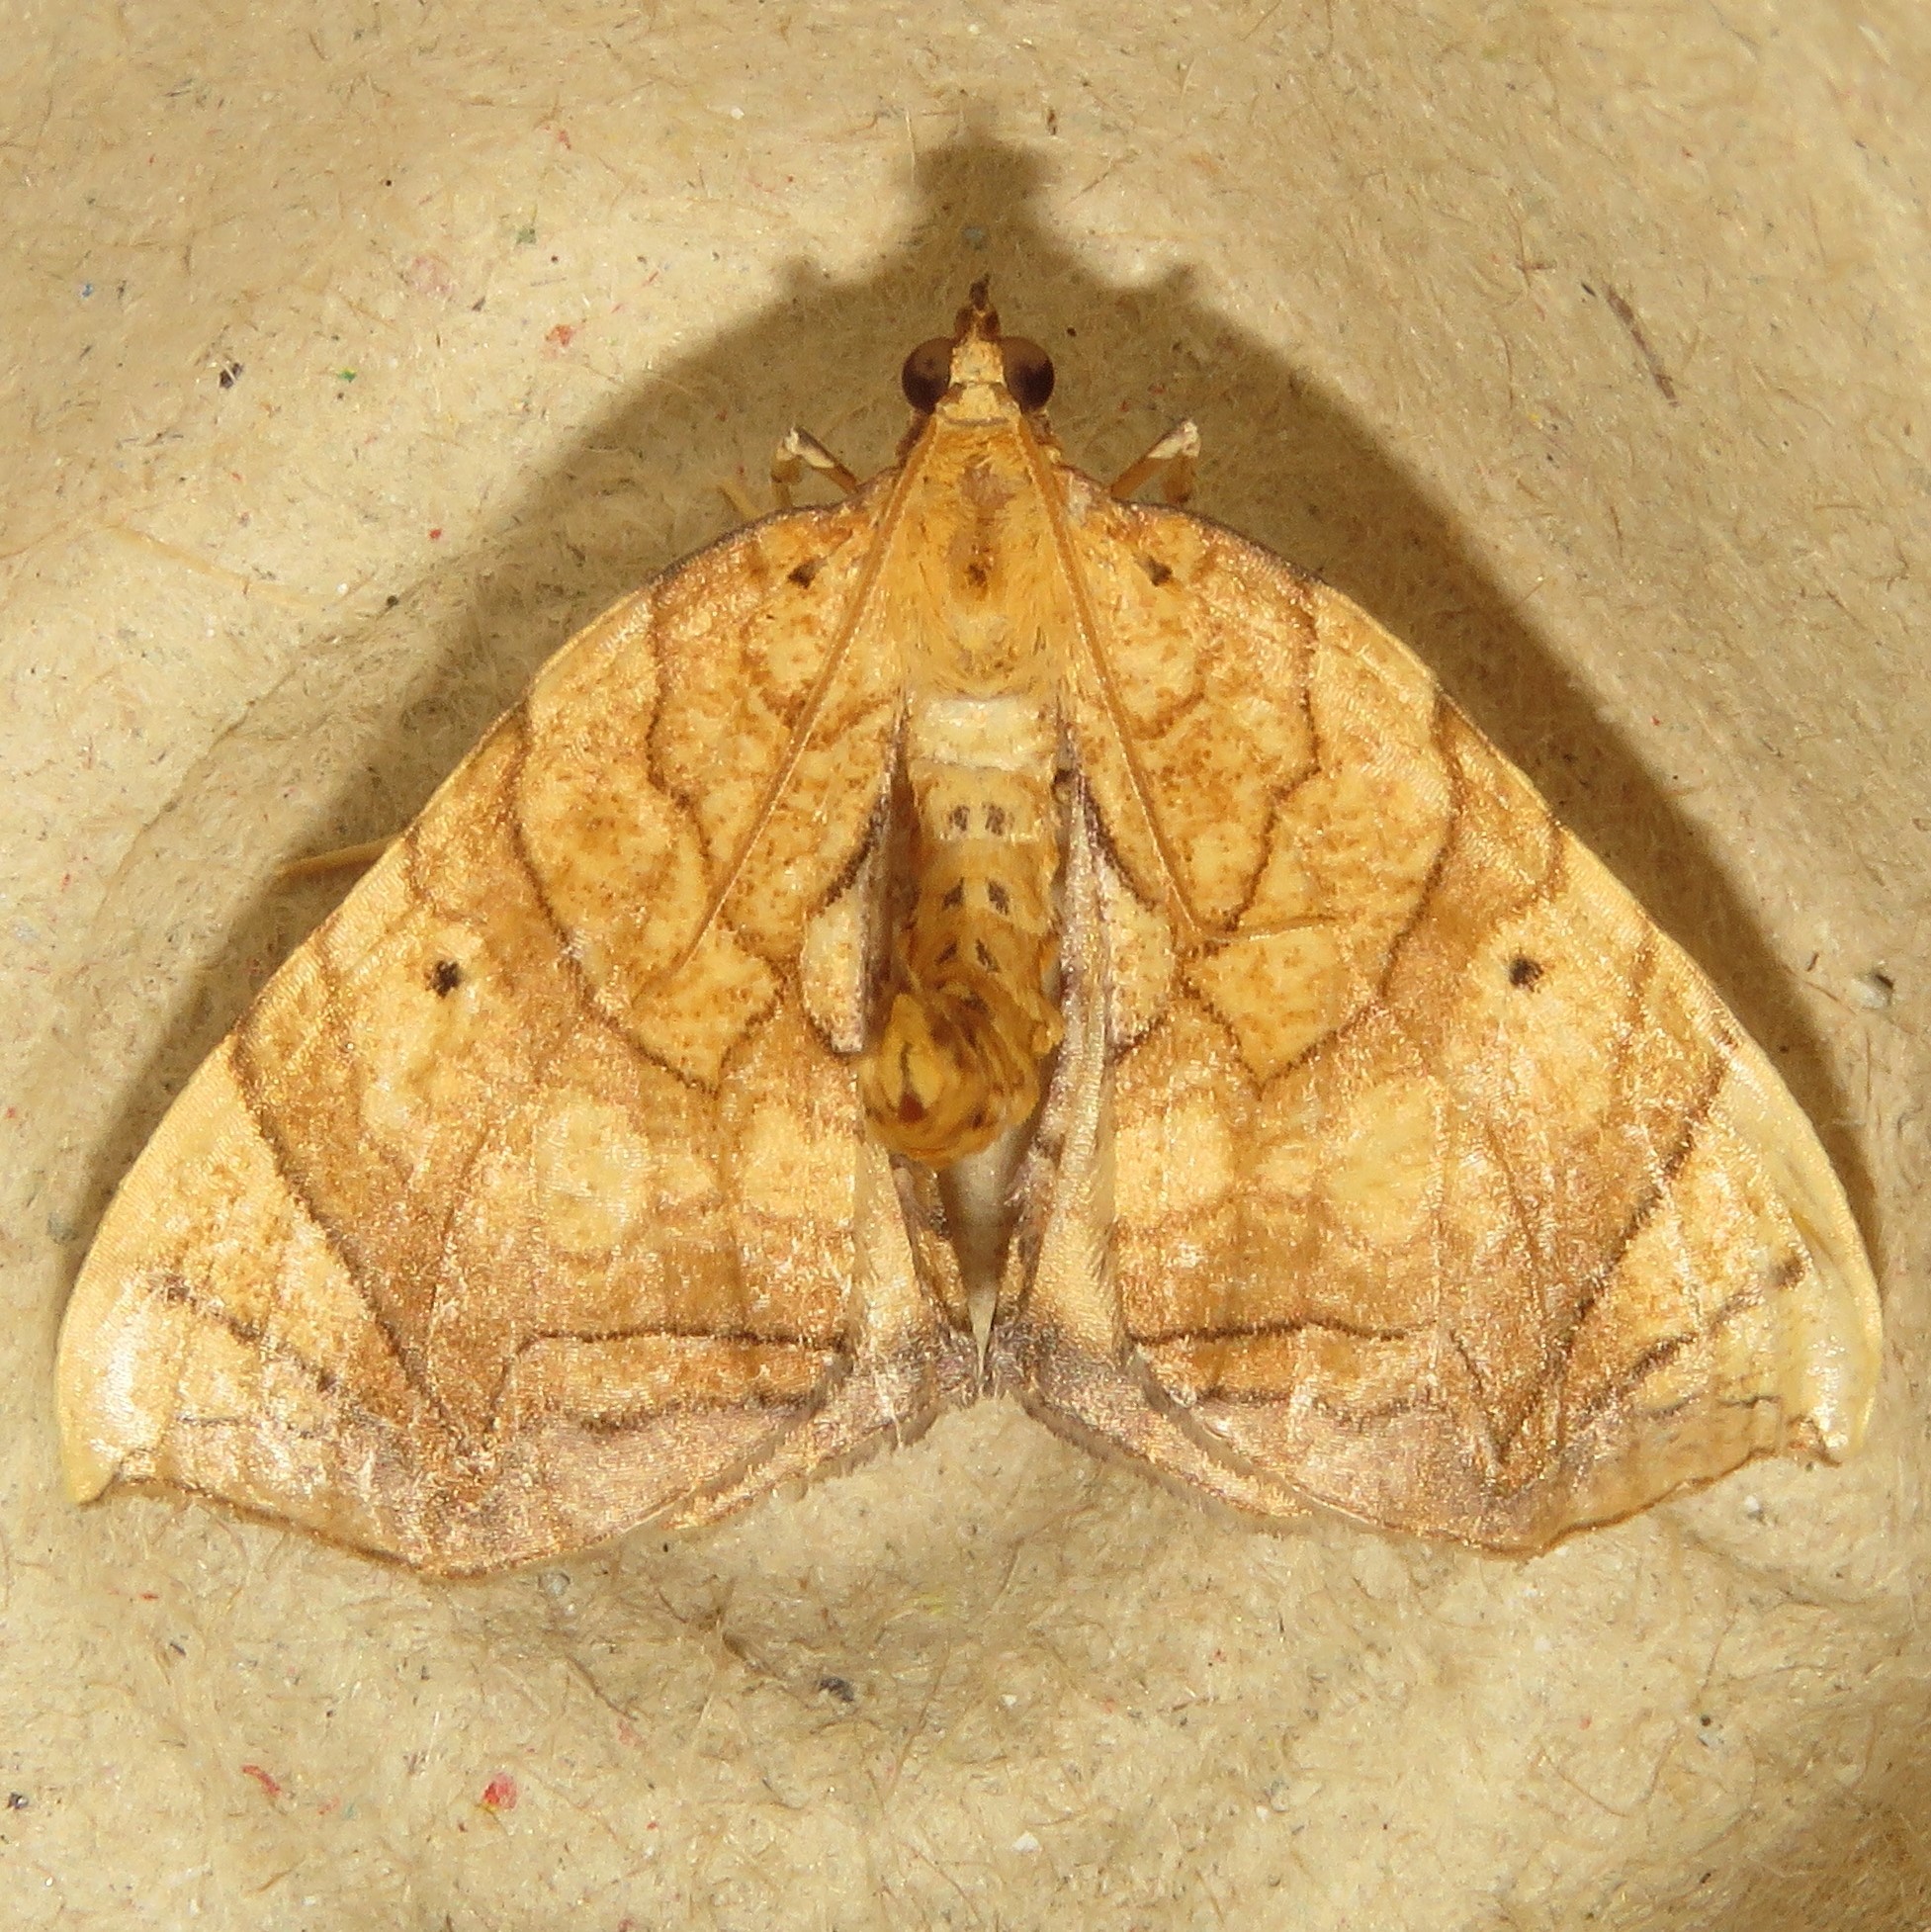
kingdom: Animalia
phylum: Arthropoda
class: Insecta
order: Lepidoptera
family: Geometridae
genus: Eulithis
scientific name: Eulithis
